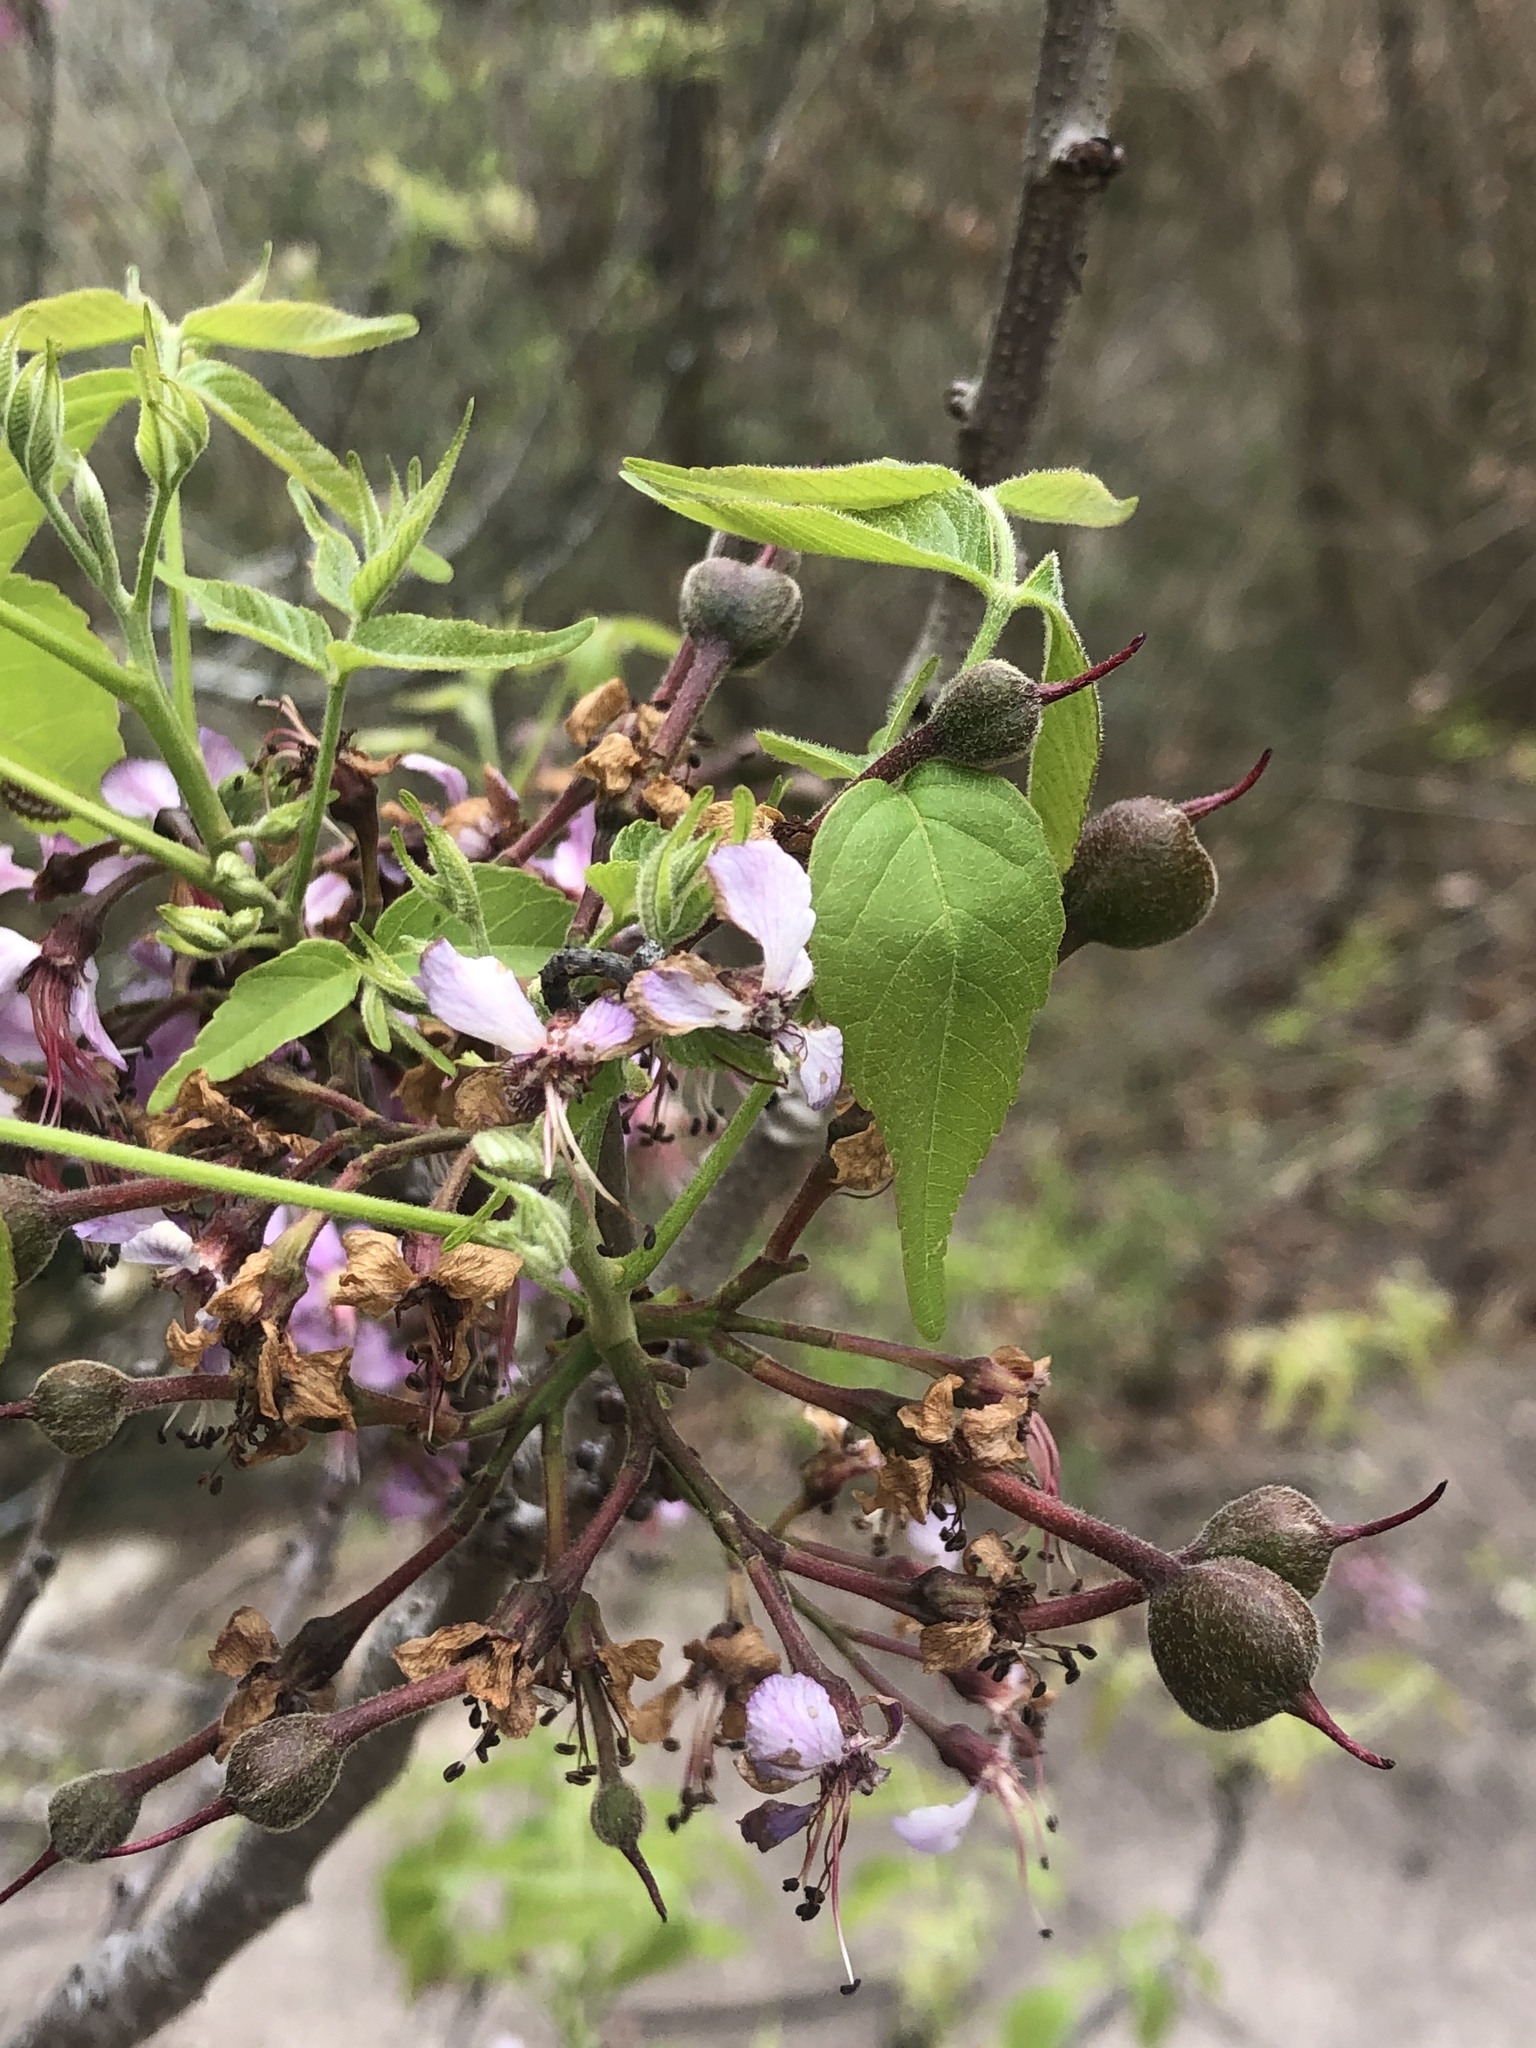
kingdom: Plantae
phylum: Tracheophyta
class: Magnoliopsida
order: Sapindales
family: Sapindaceae
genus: Ungnadia
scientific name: Ungnadia speciosa
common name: Texas-buckeye
